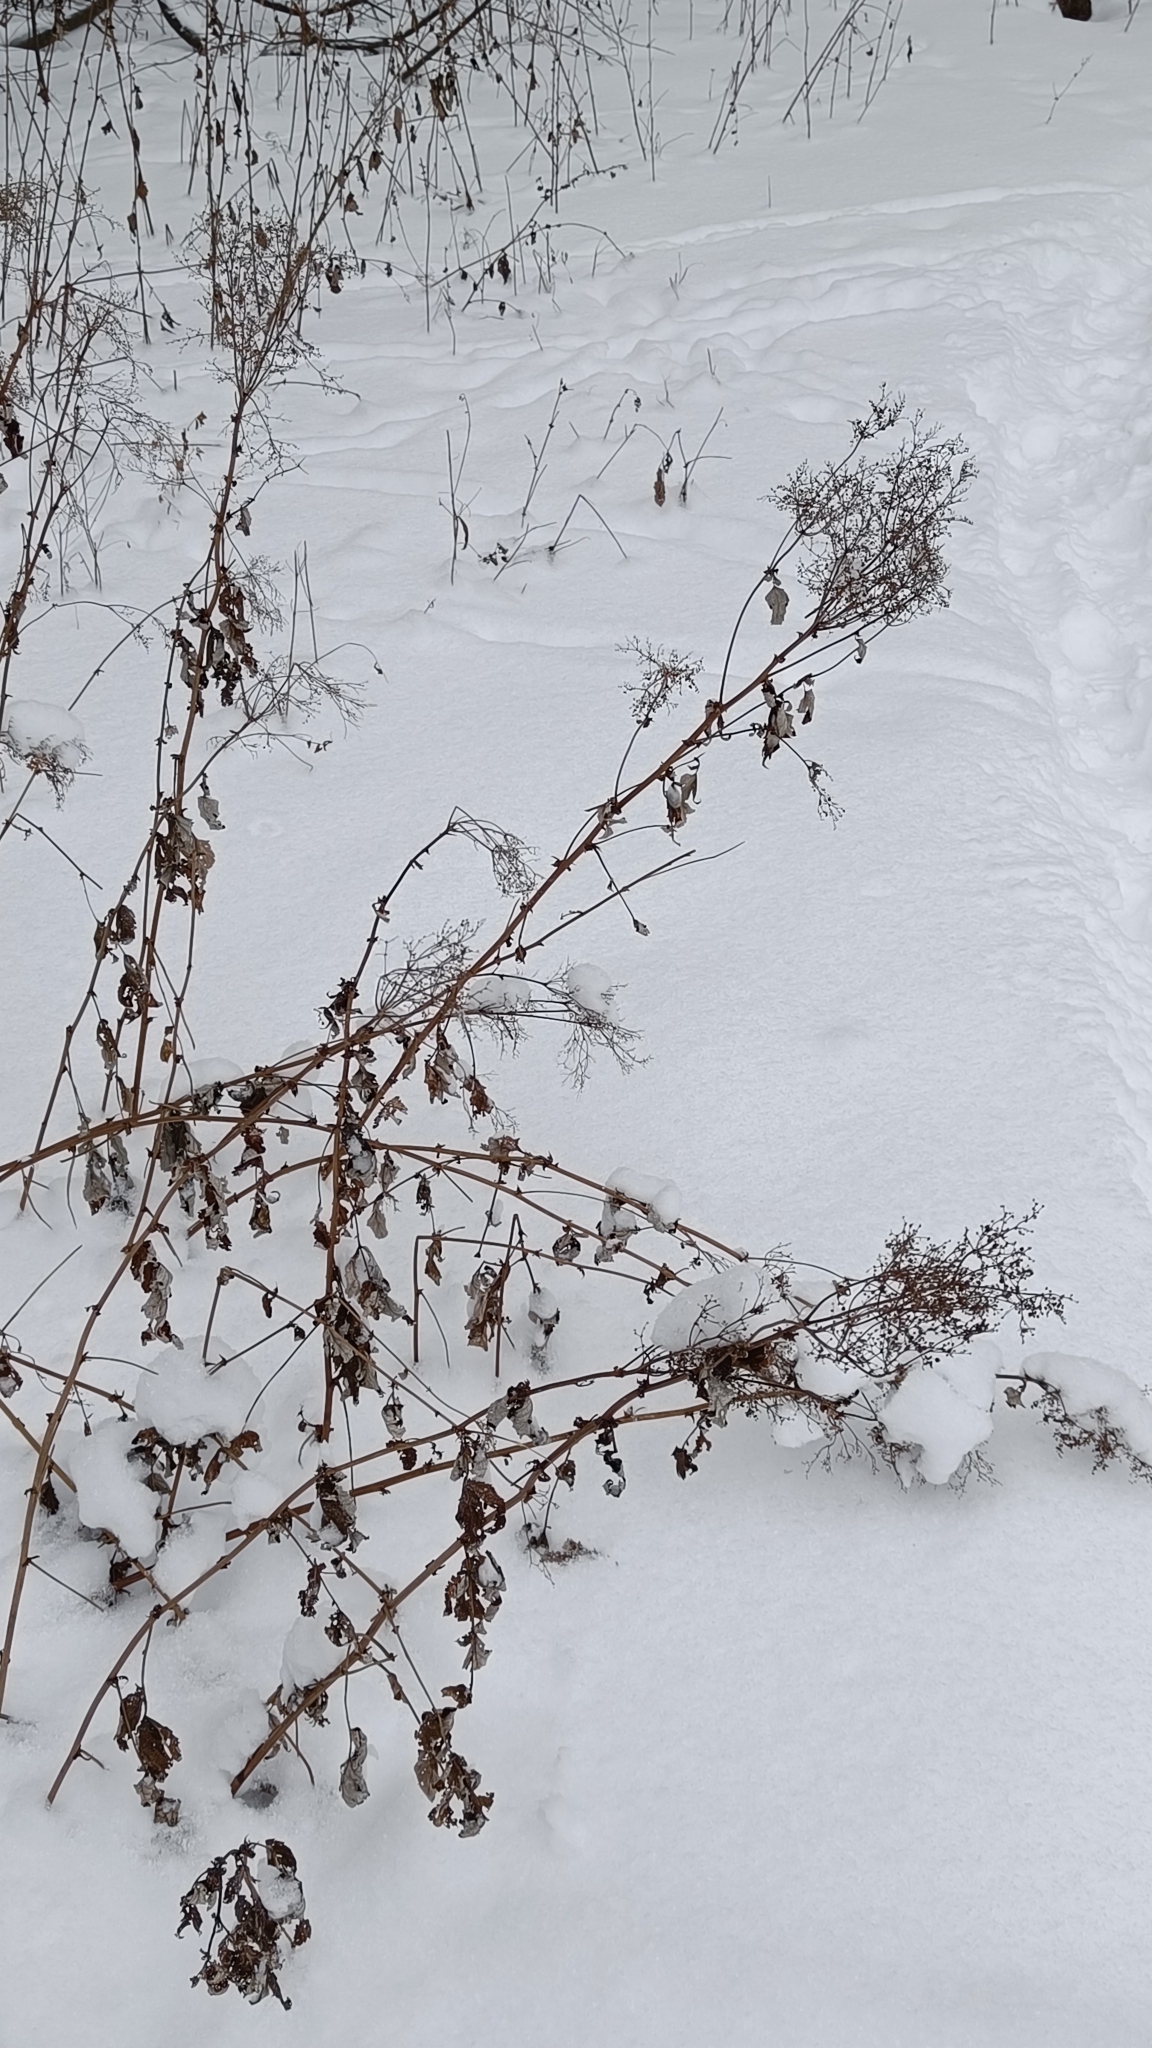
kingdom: Plantae
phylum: Tracheophyta
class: Magnoliopsida
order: Rosales
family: Rosaceae
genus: Filipendula
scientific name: Filipendula ulmaria
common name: Meadowsweet
